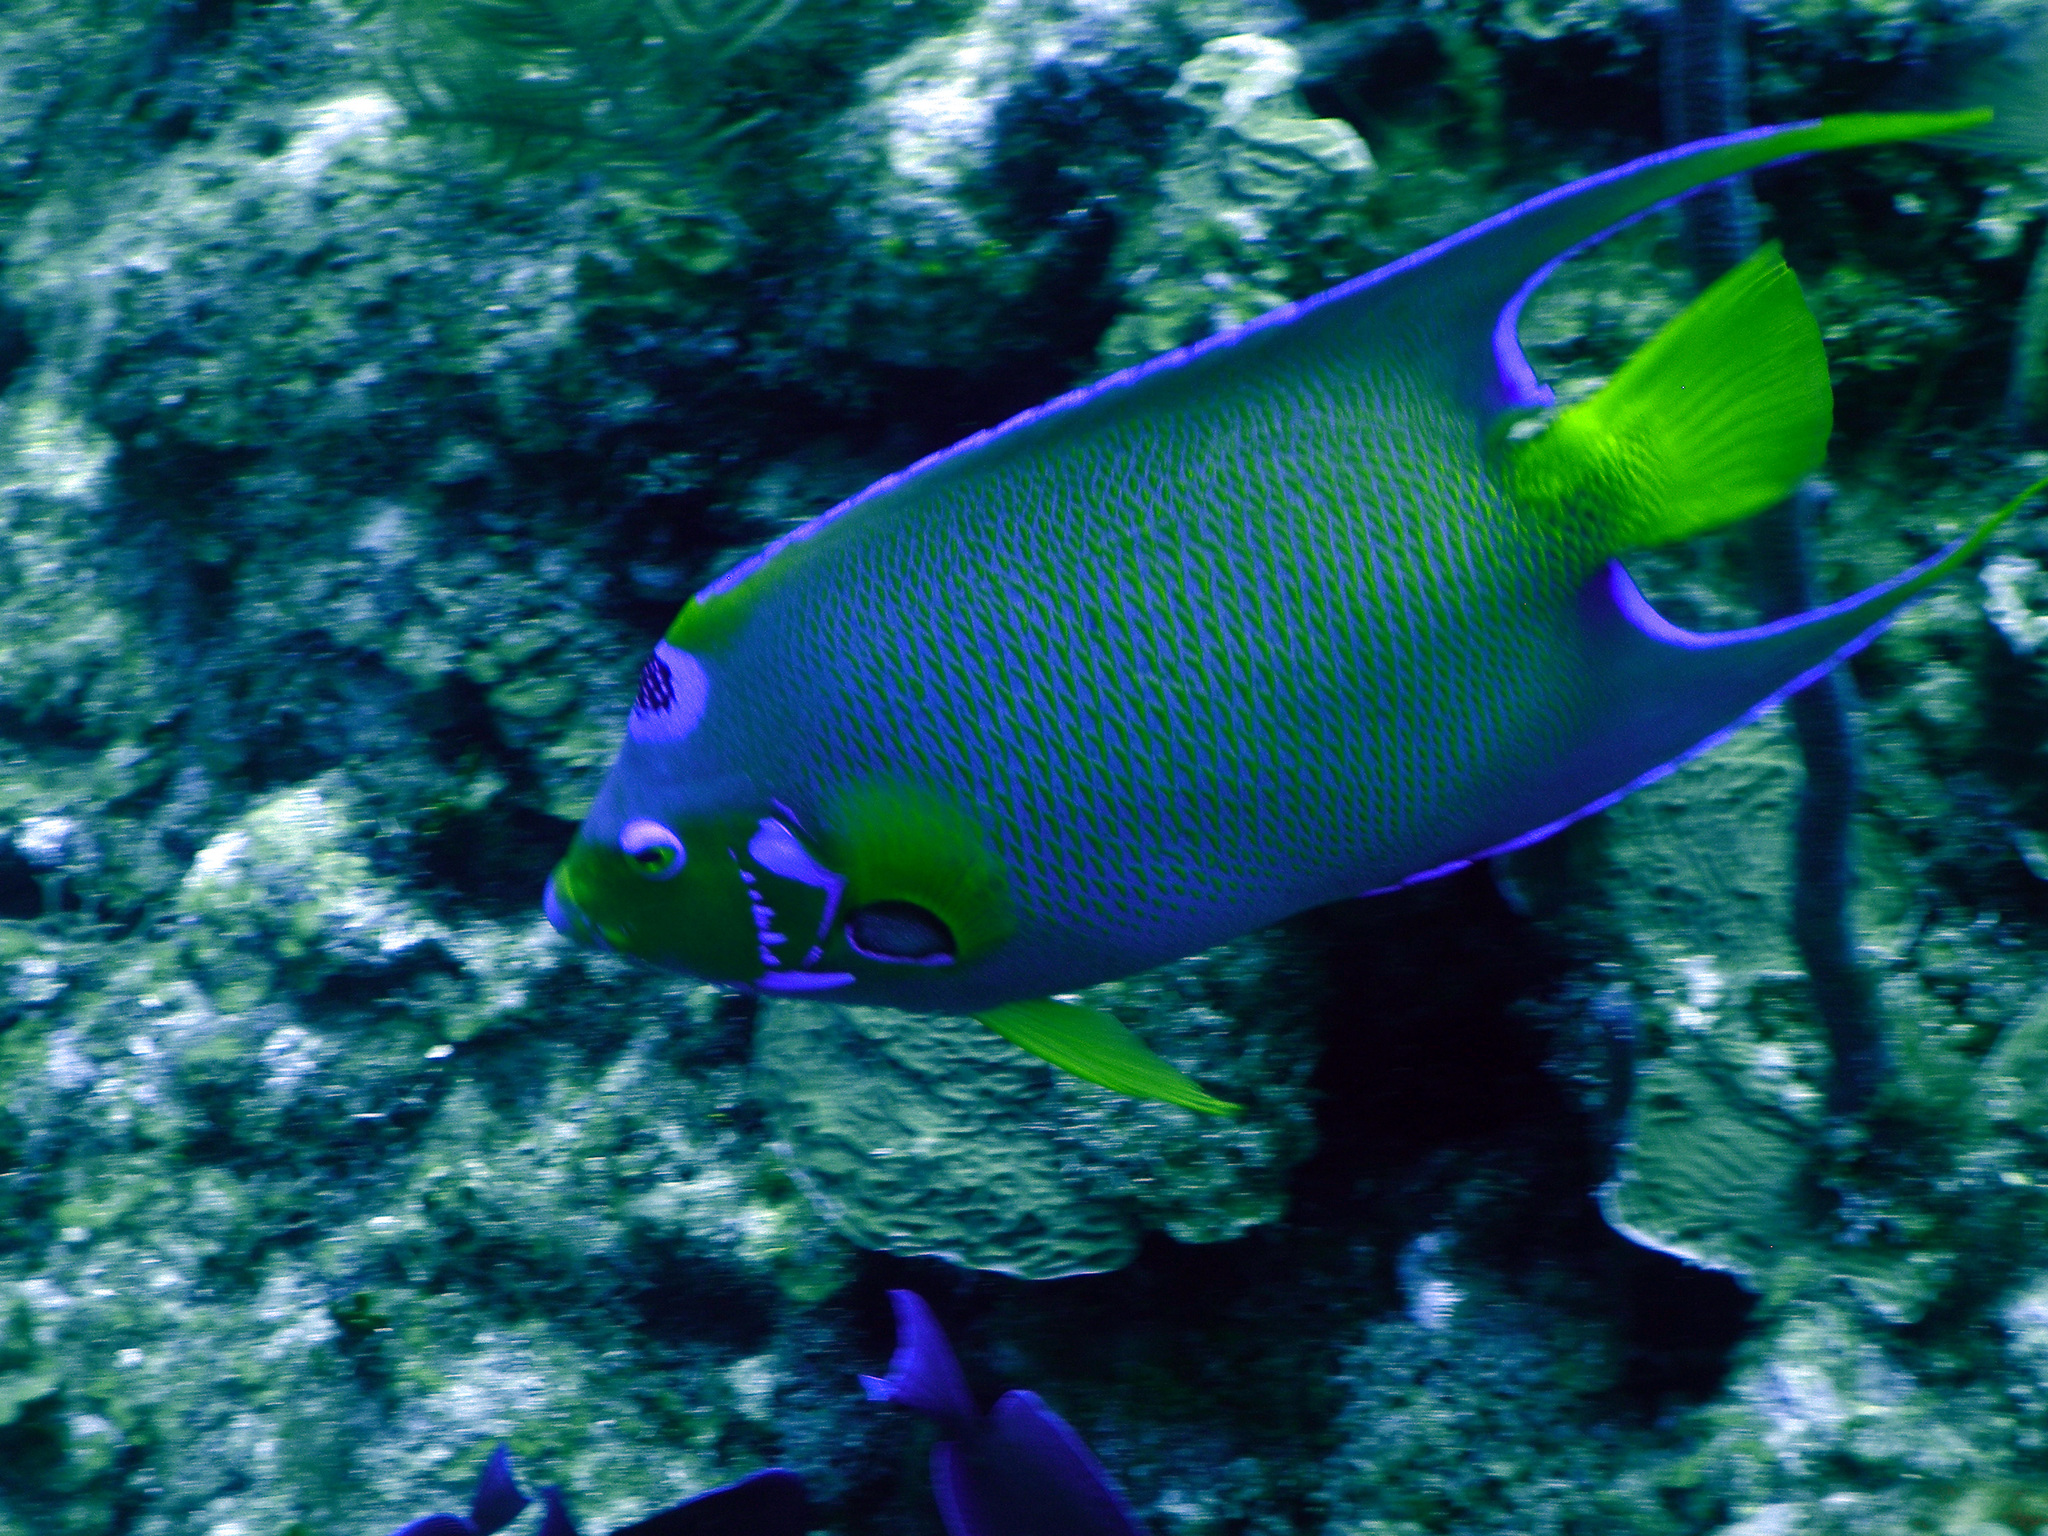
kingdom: Animalia
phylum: Chordata
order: Perciformes
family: Pomacanthidae
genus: Holacanthus
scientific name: Holacanthus ciliaris
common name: Queen angelfish
